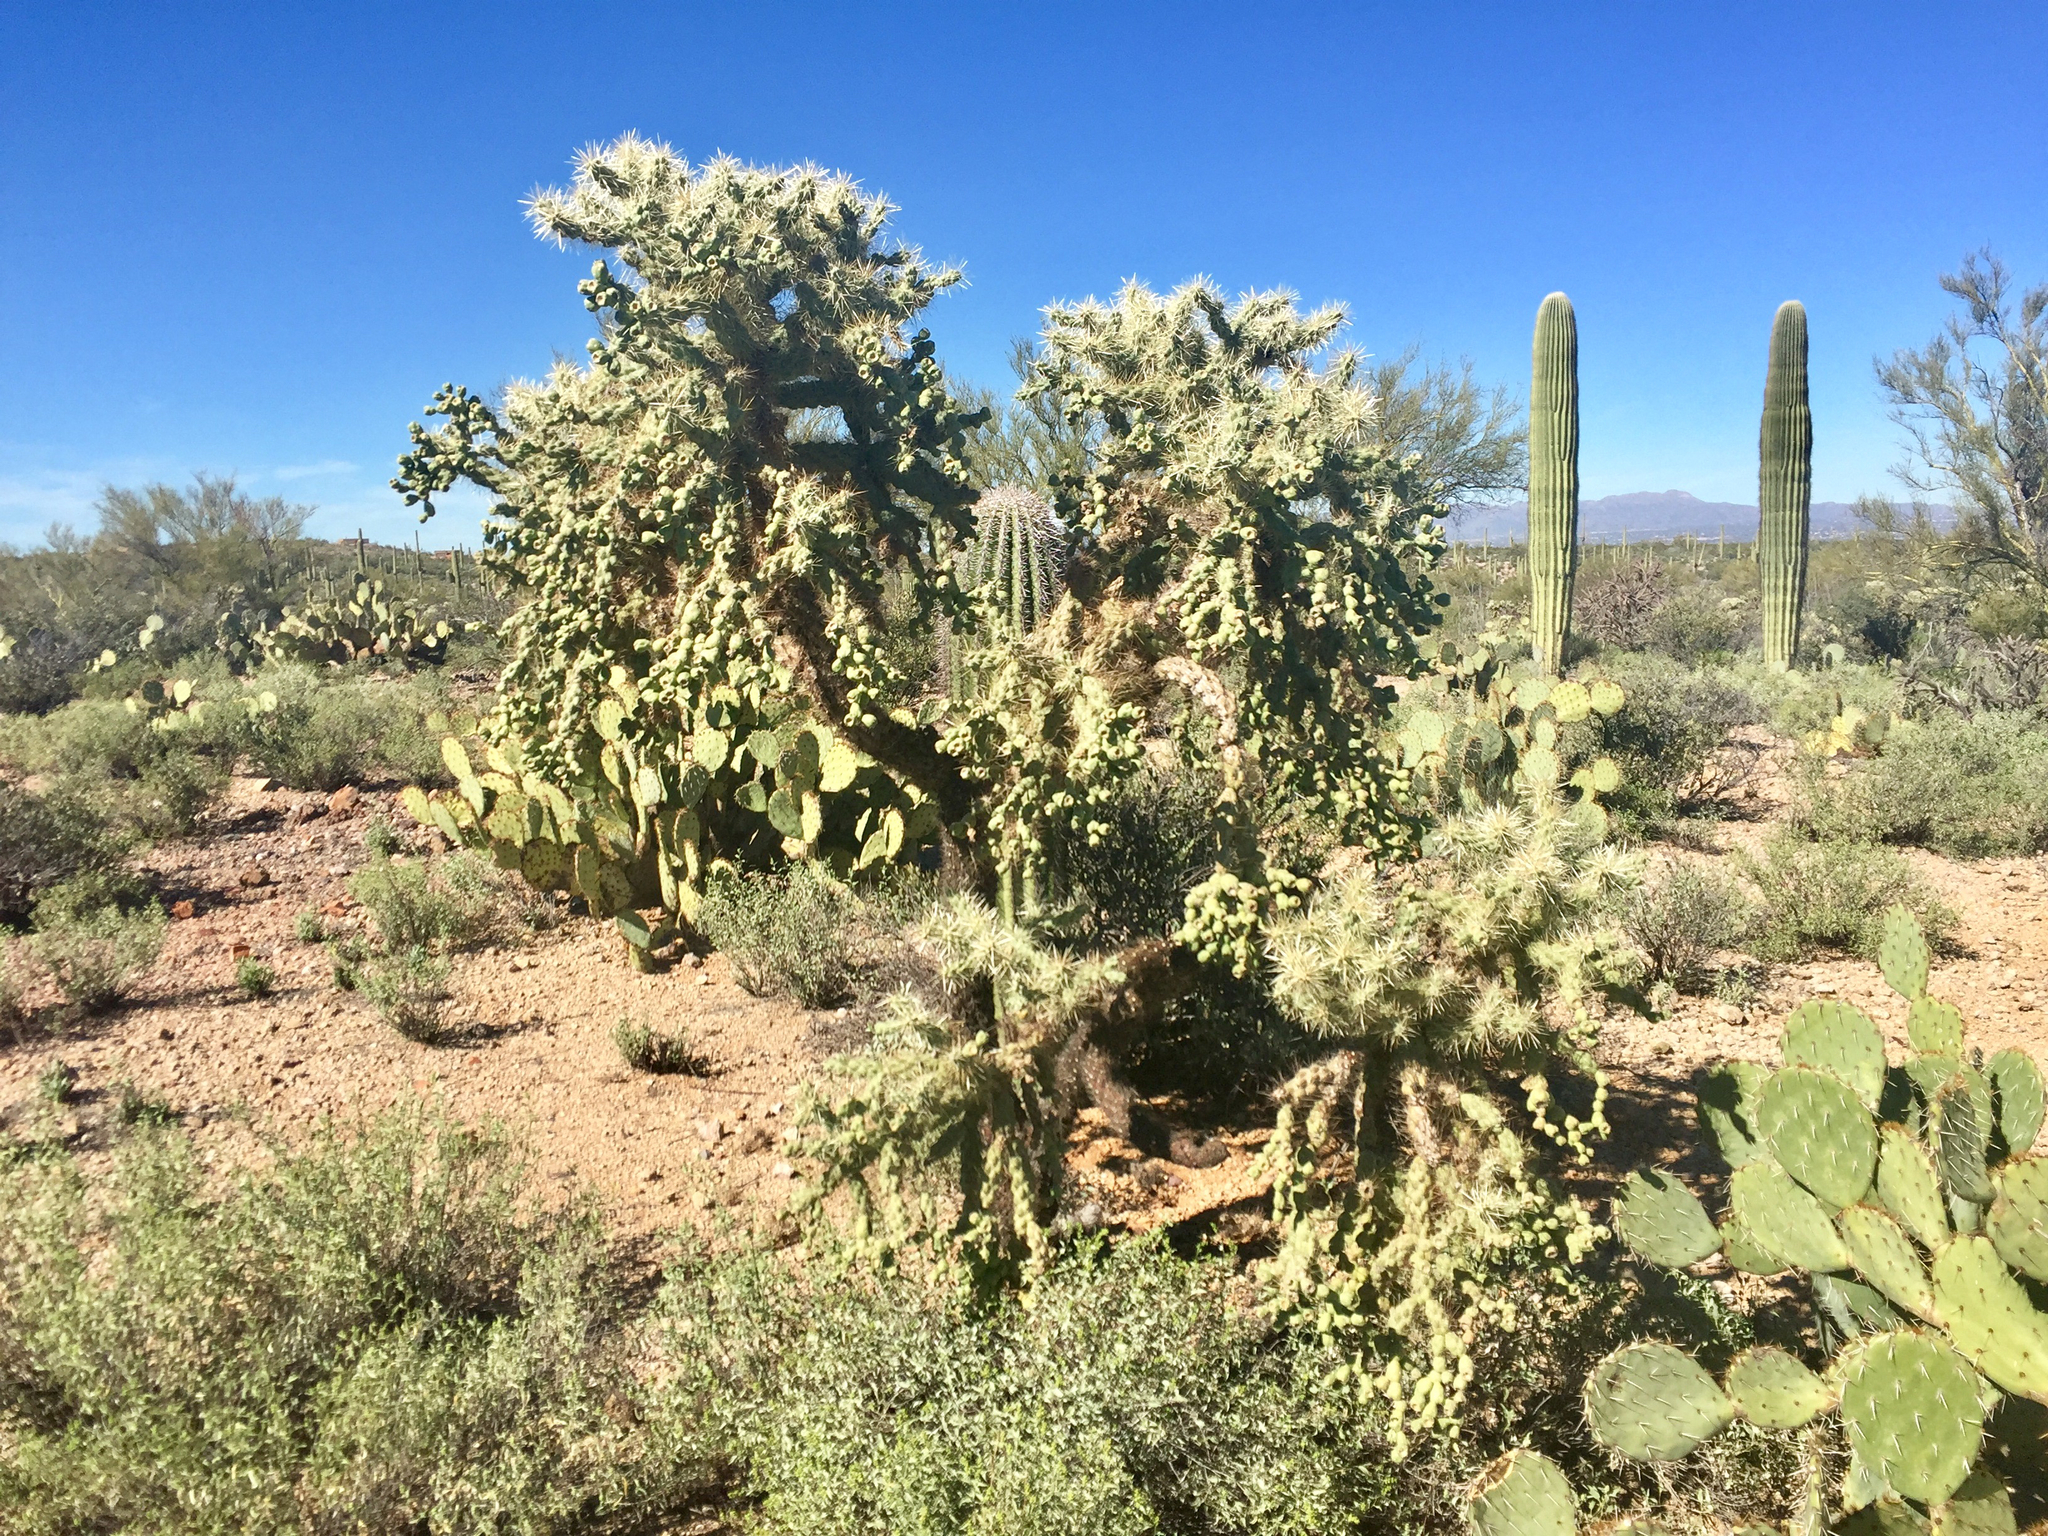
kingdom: Plantae
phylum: Tracheophyta
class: Magnoliopsida
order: Caryophyllales
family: Cactaceae
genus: Cylindropuntia
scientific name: Cylindropuntia fulgida
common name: Jumping cholla
